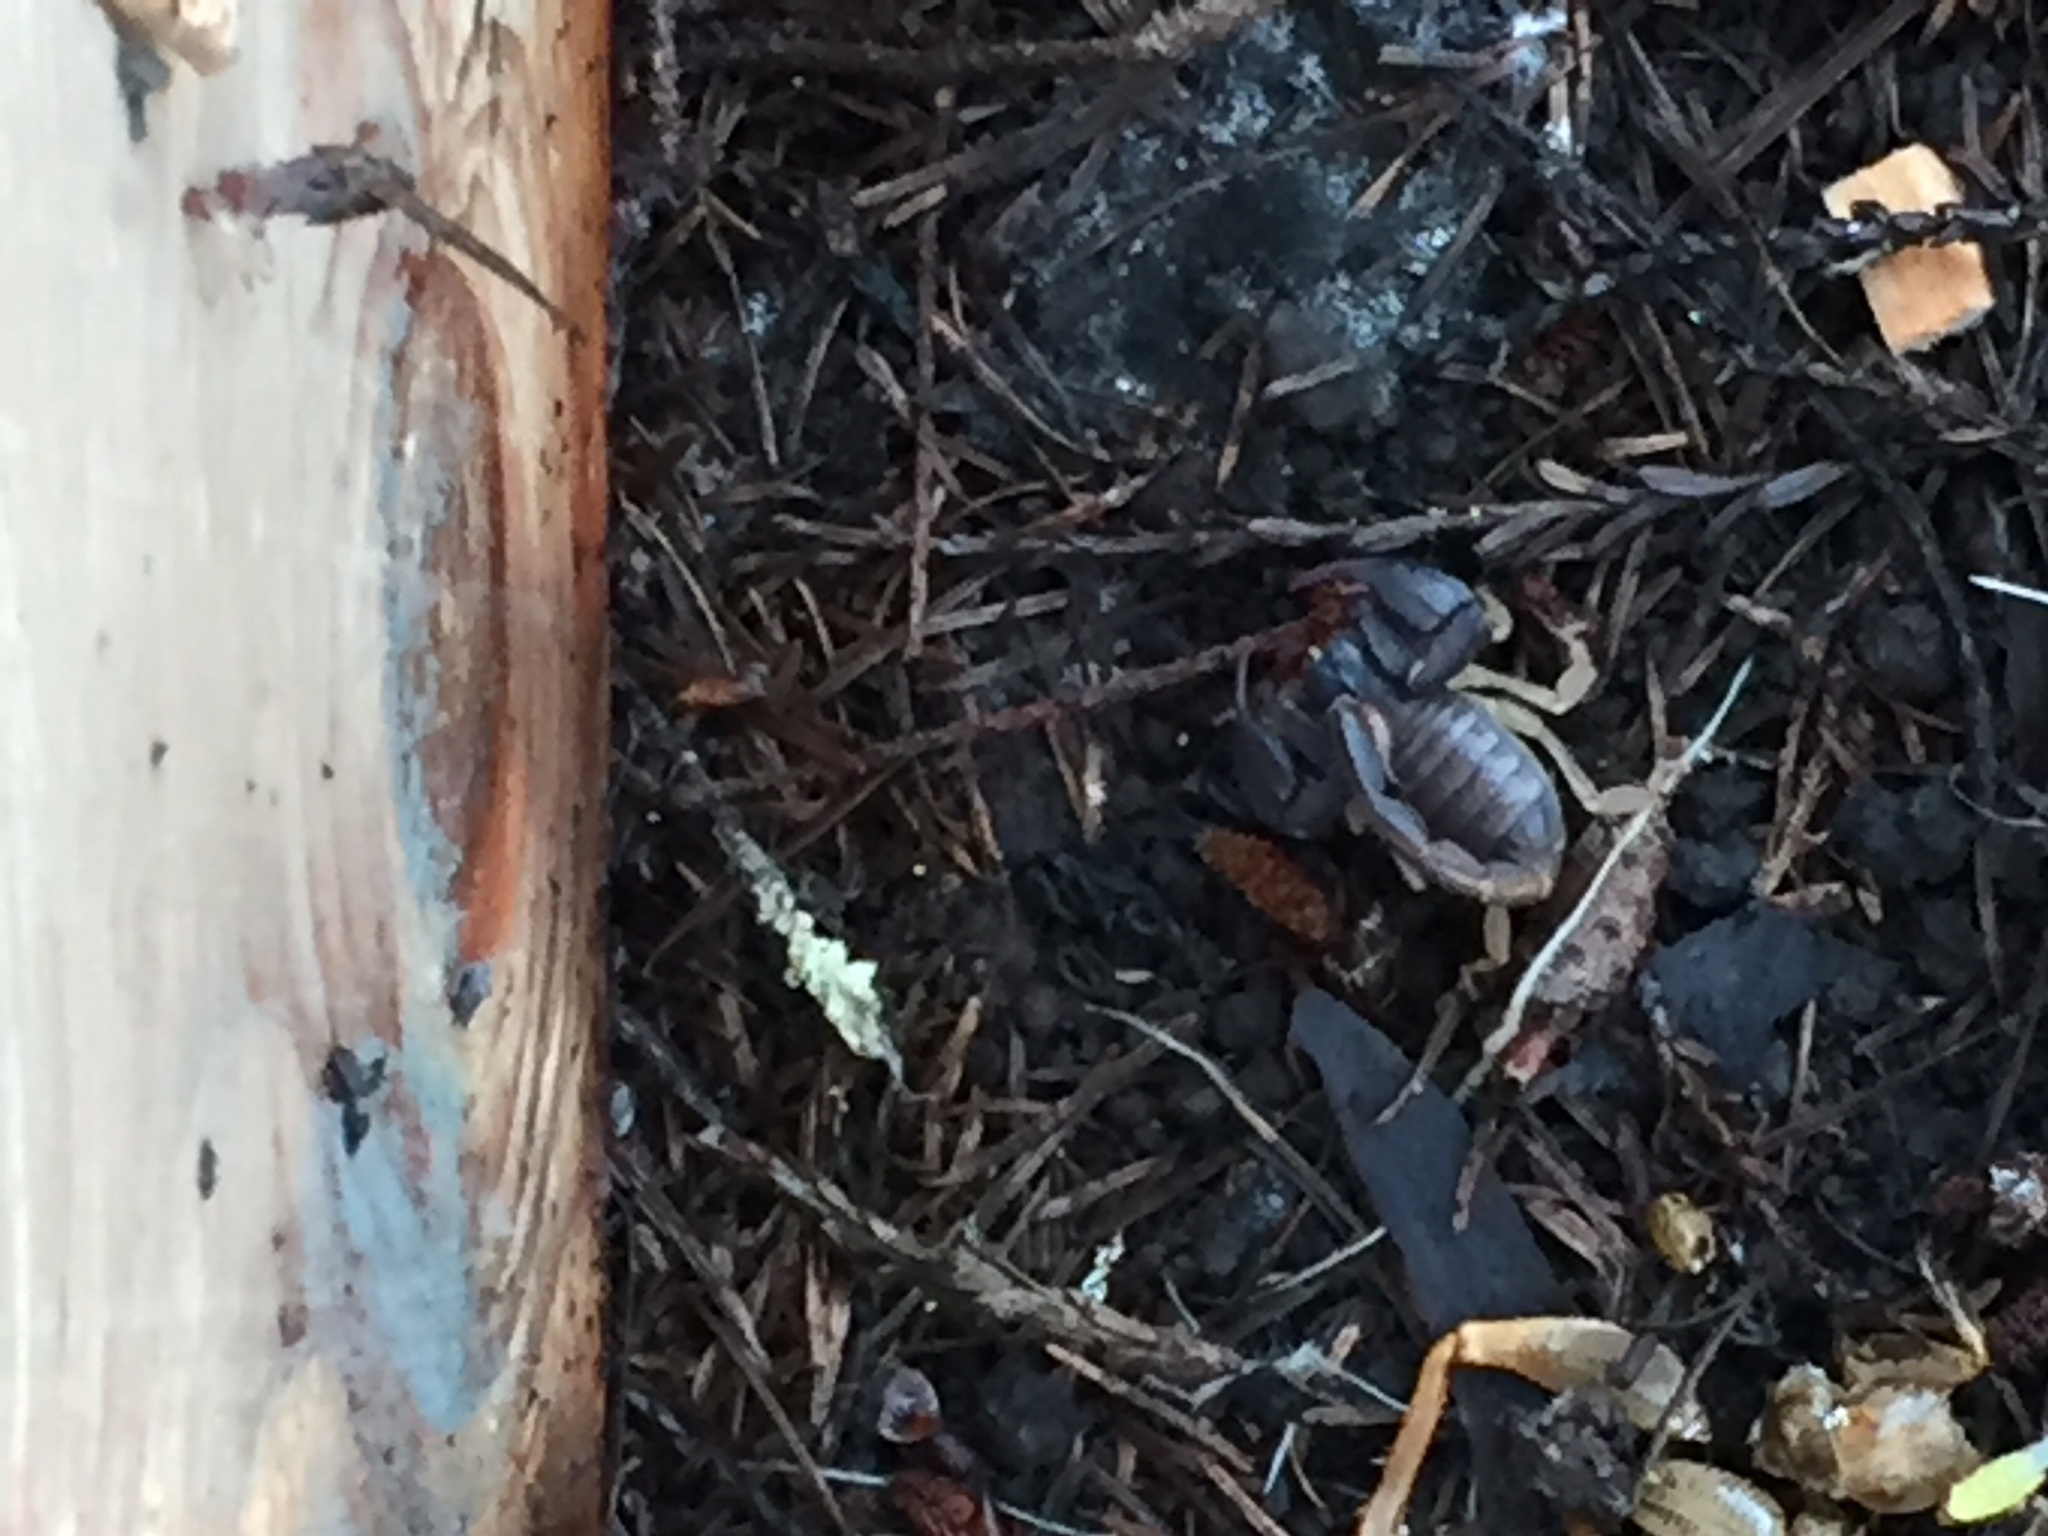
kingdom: Animalia
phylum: Arthropoda
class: Arachnida
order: Scorpiones
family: Chactidae
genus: Uroctonus
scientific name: Uroctonus mordax
